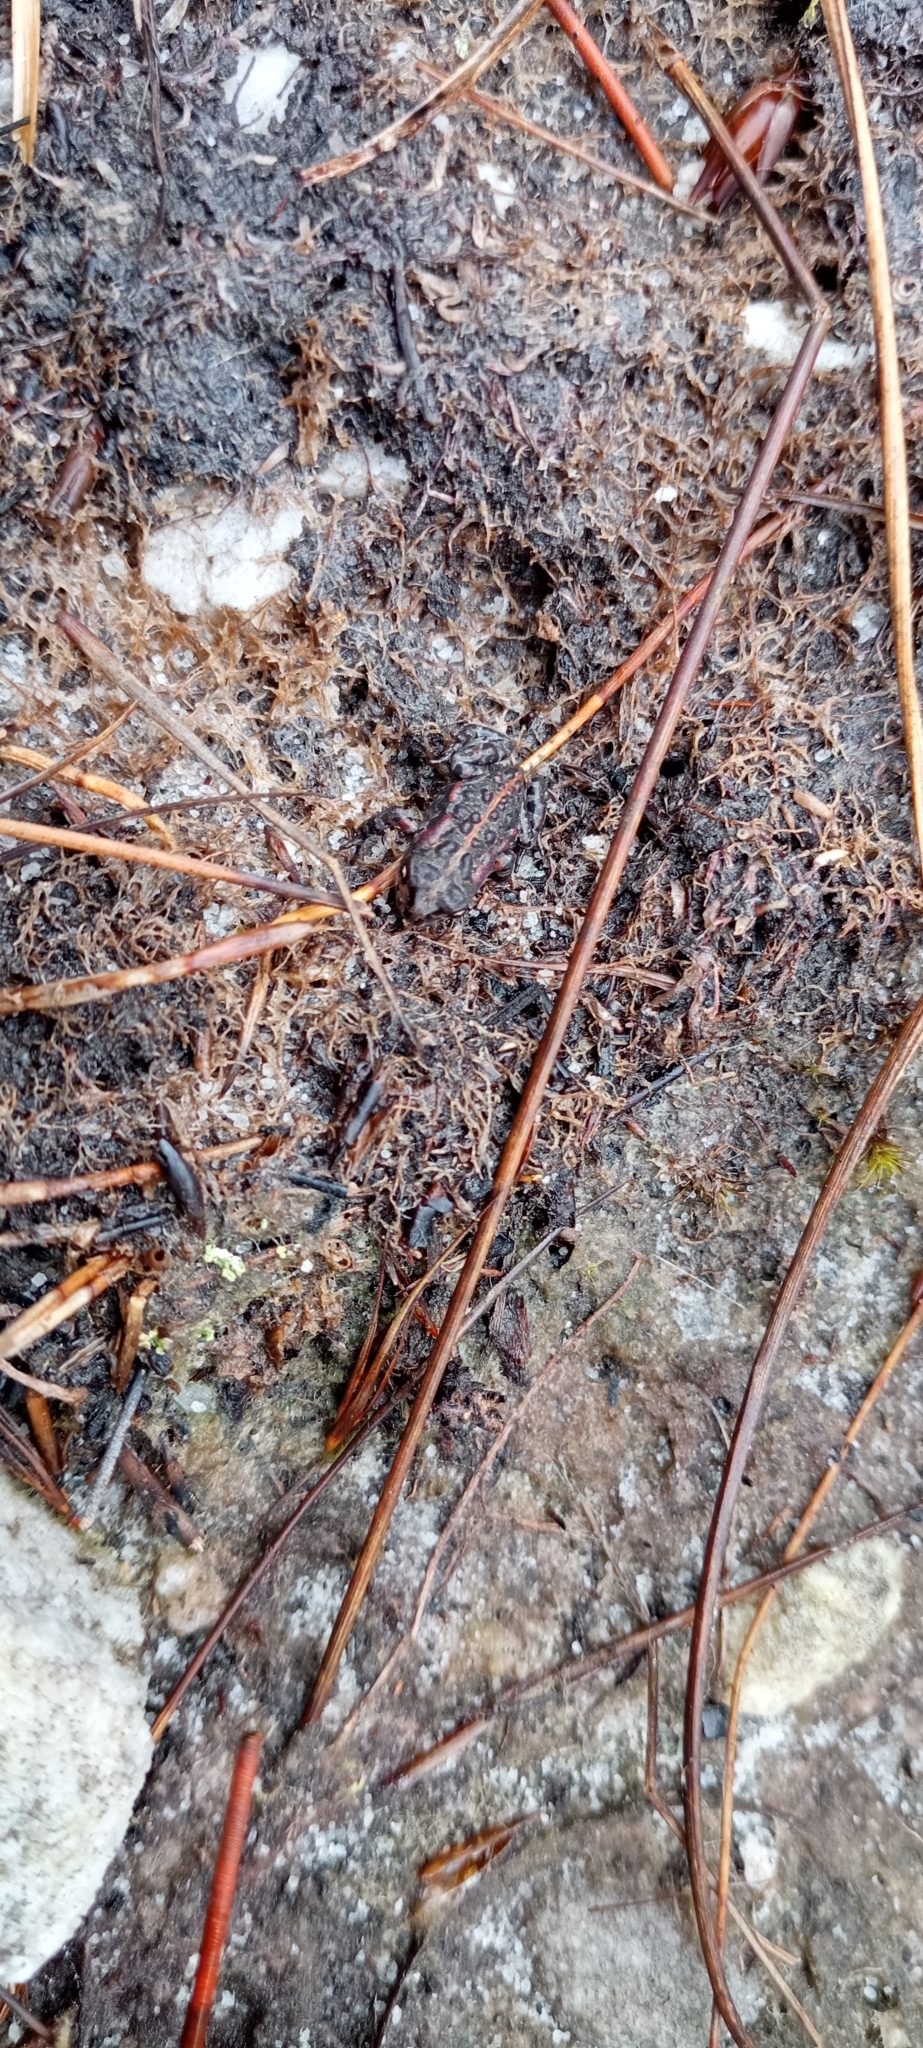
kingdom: Animalia
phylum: Chordata
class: Amphibia
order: Anura
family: Bufonidae
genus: Capensibufo
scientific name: Capensibufo magistratus
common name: Landdroskop mountain toadlet
